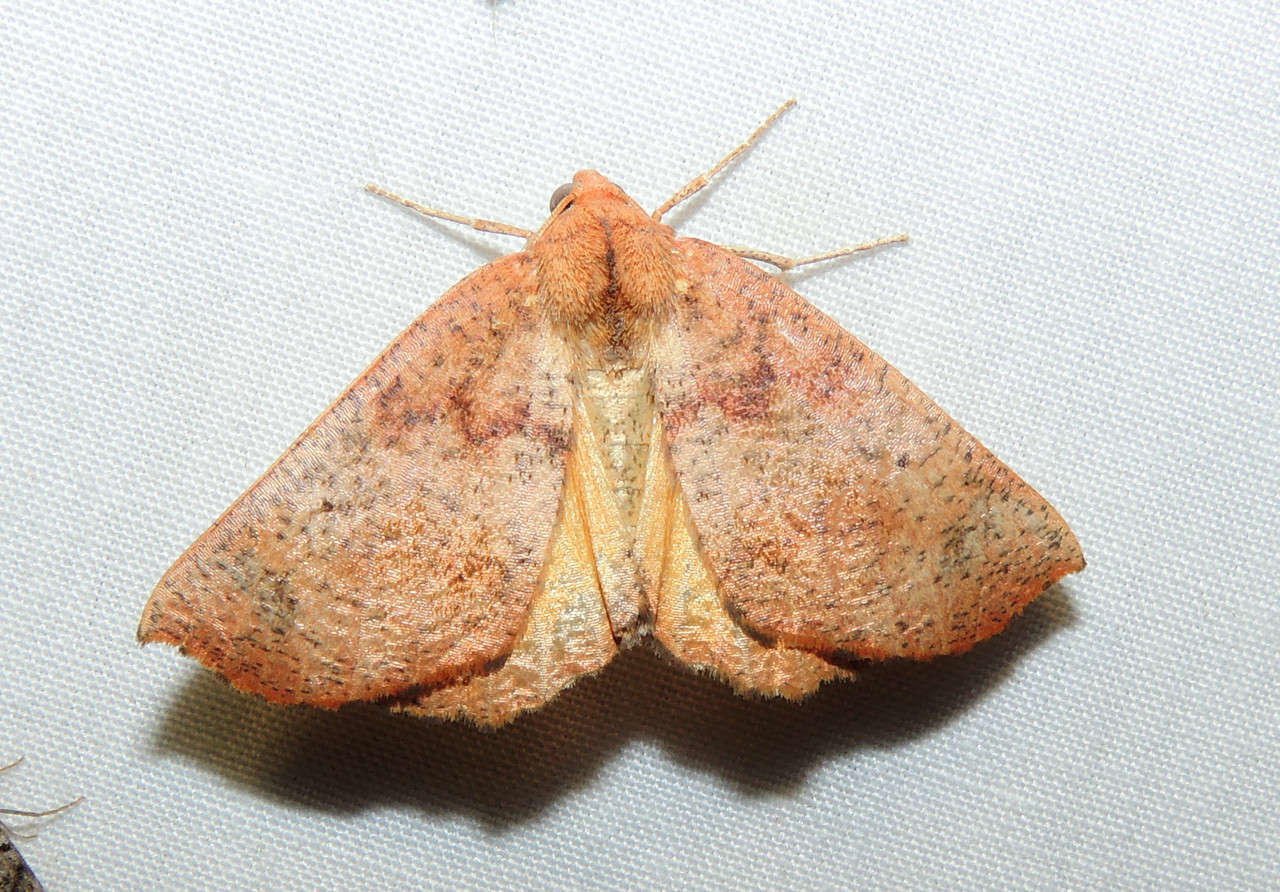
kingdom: Animalia
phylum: Arthropoda
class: Insecta
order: Lepidoptera
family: Geometridae
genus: Mnesampela
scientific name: Mnesampela privata
